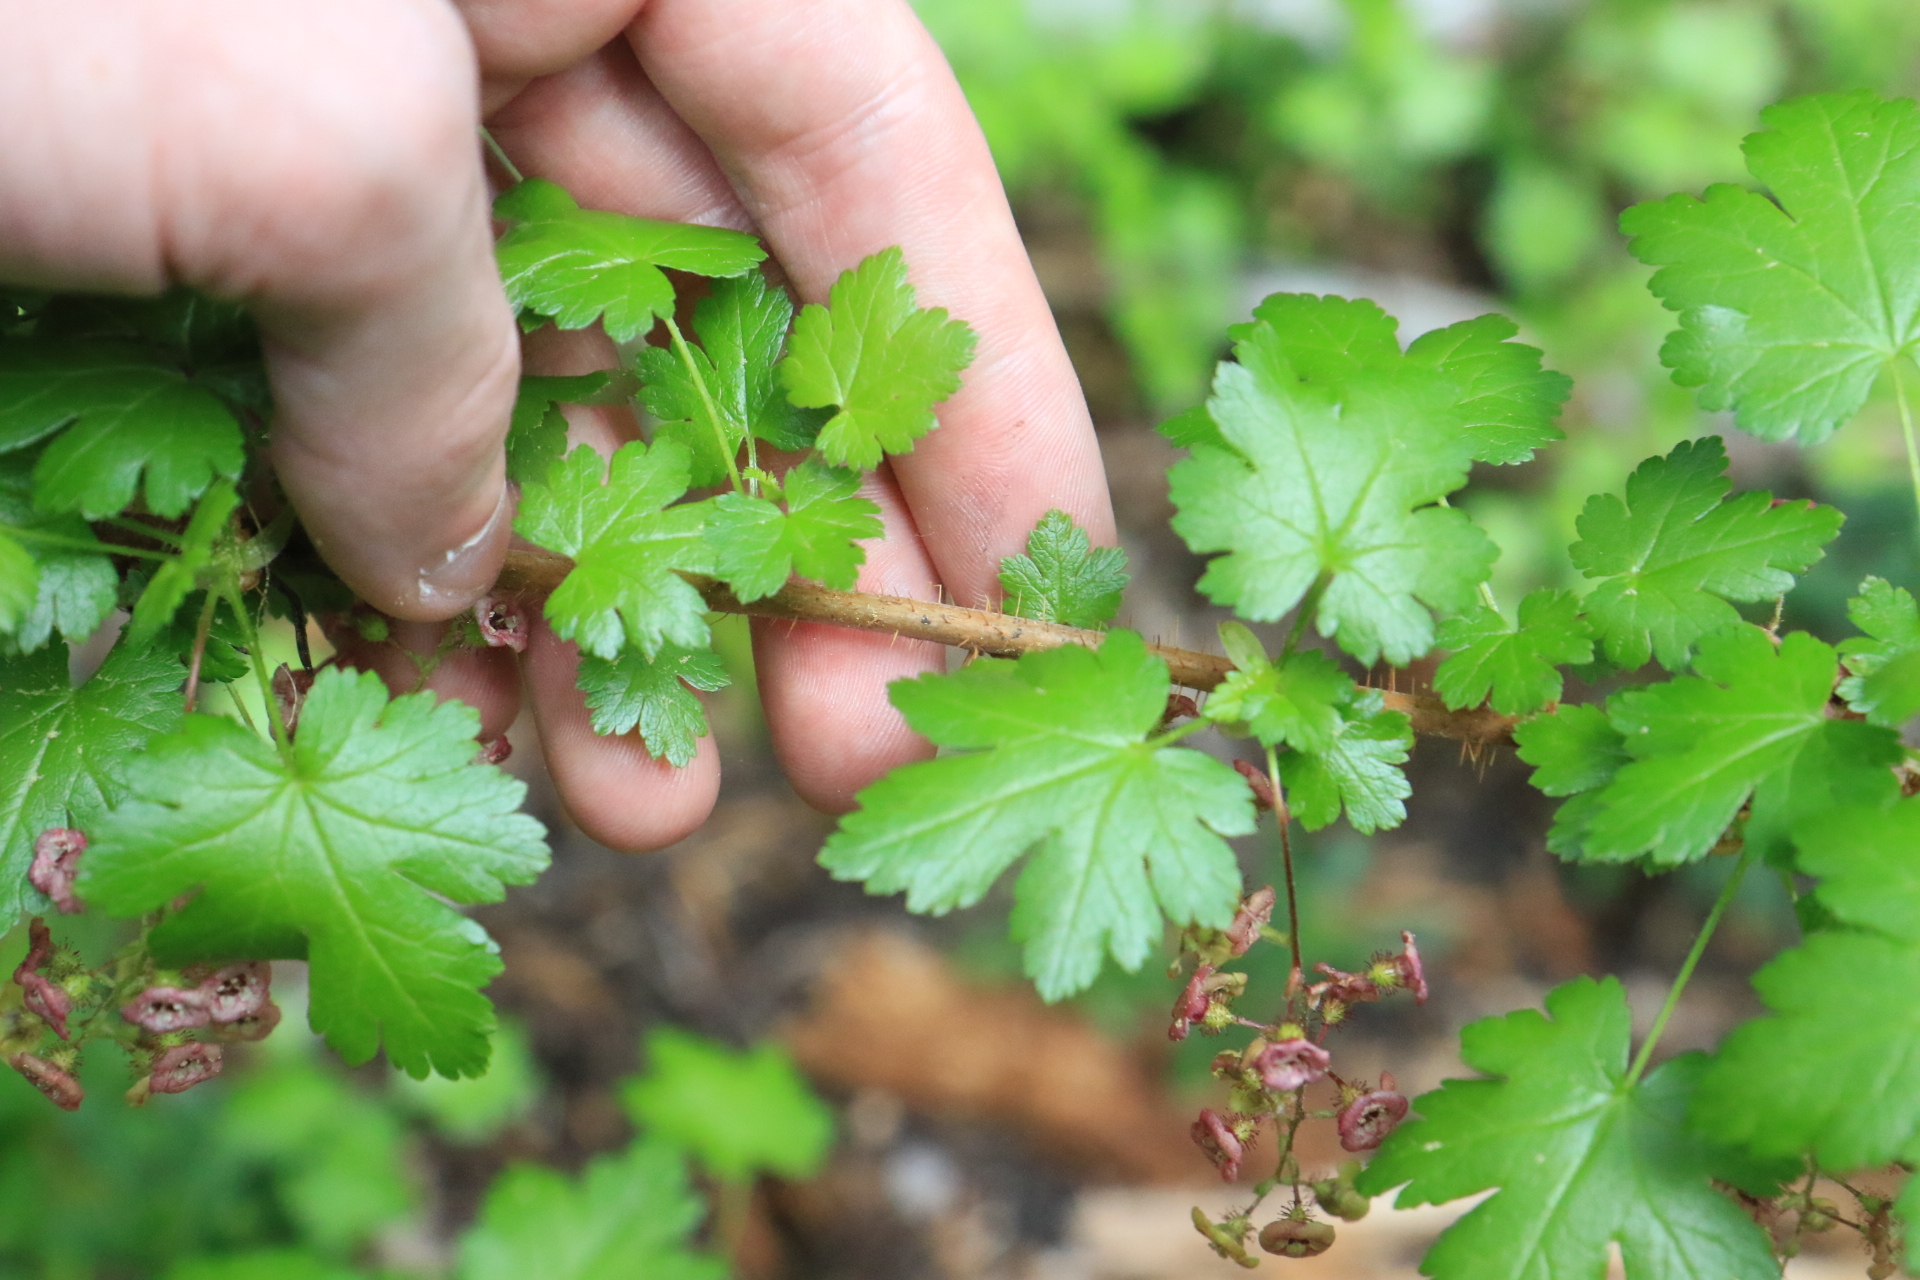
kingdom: Plantae
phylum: Tracheophyta
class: Magnoliopsida
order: Saxifragales
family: Grossulariaceae
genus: Ribes
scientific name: Ribes lacustre
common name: Black gooseberry
